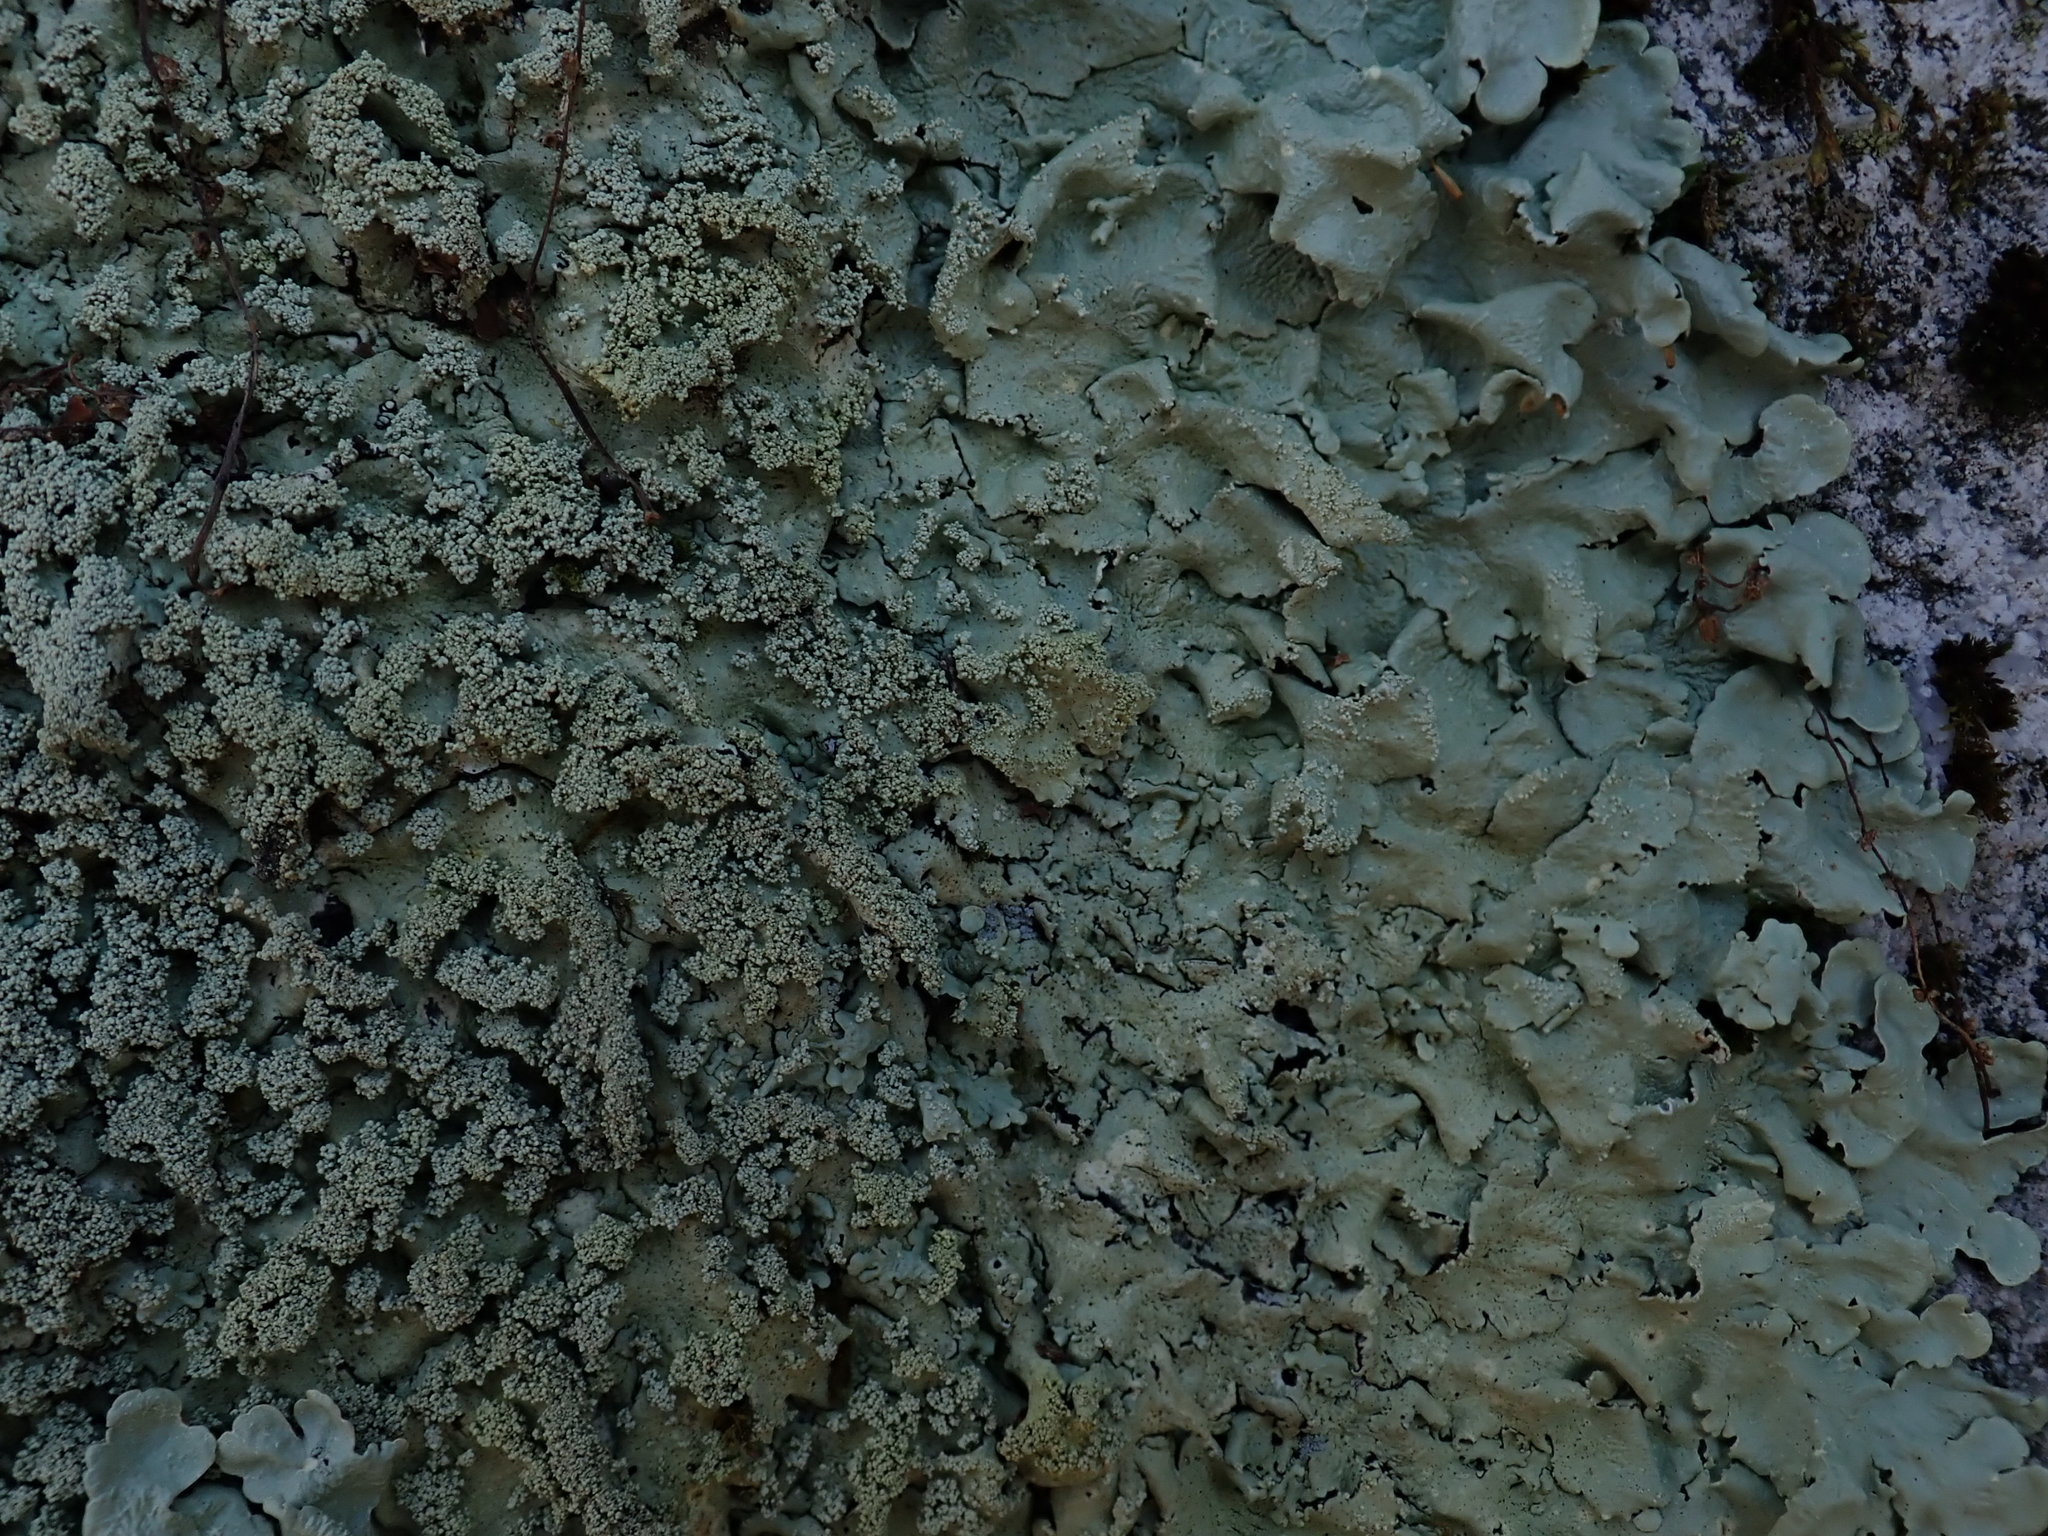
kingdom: Fungi
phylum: Ascomycota
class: Lecanoromycetes
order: Lecanorales
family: Parmeliaceae
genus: Flavoparmelia
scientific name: Flavoparmelia baltimorensis
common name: Rock greenshield
